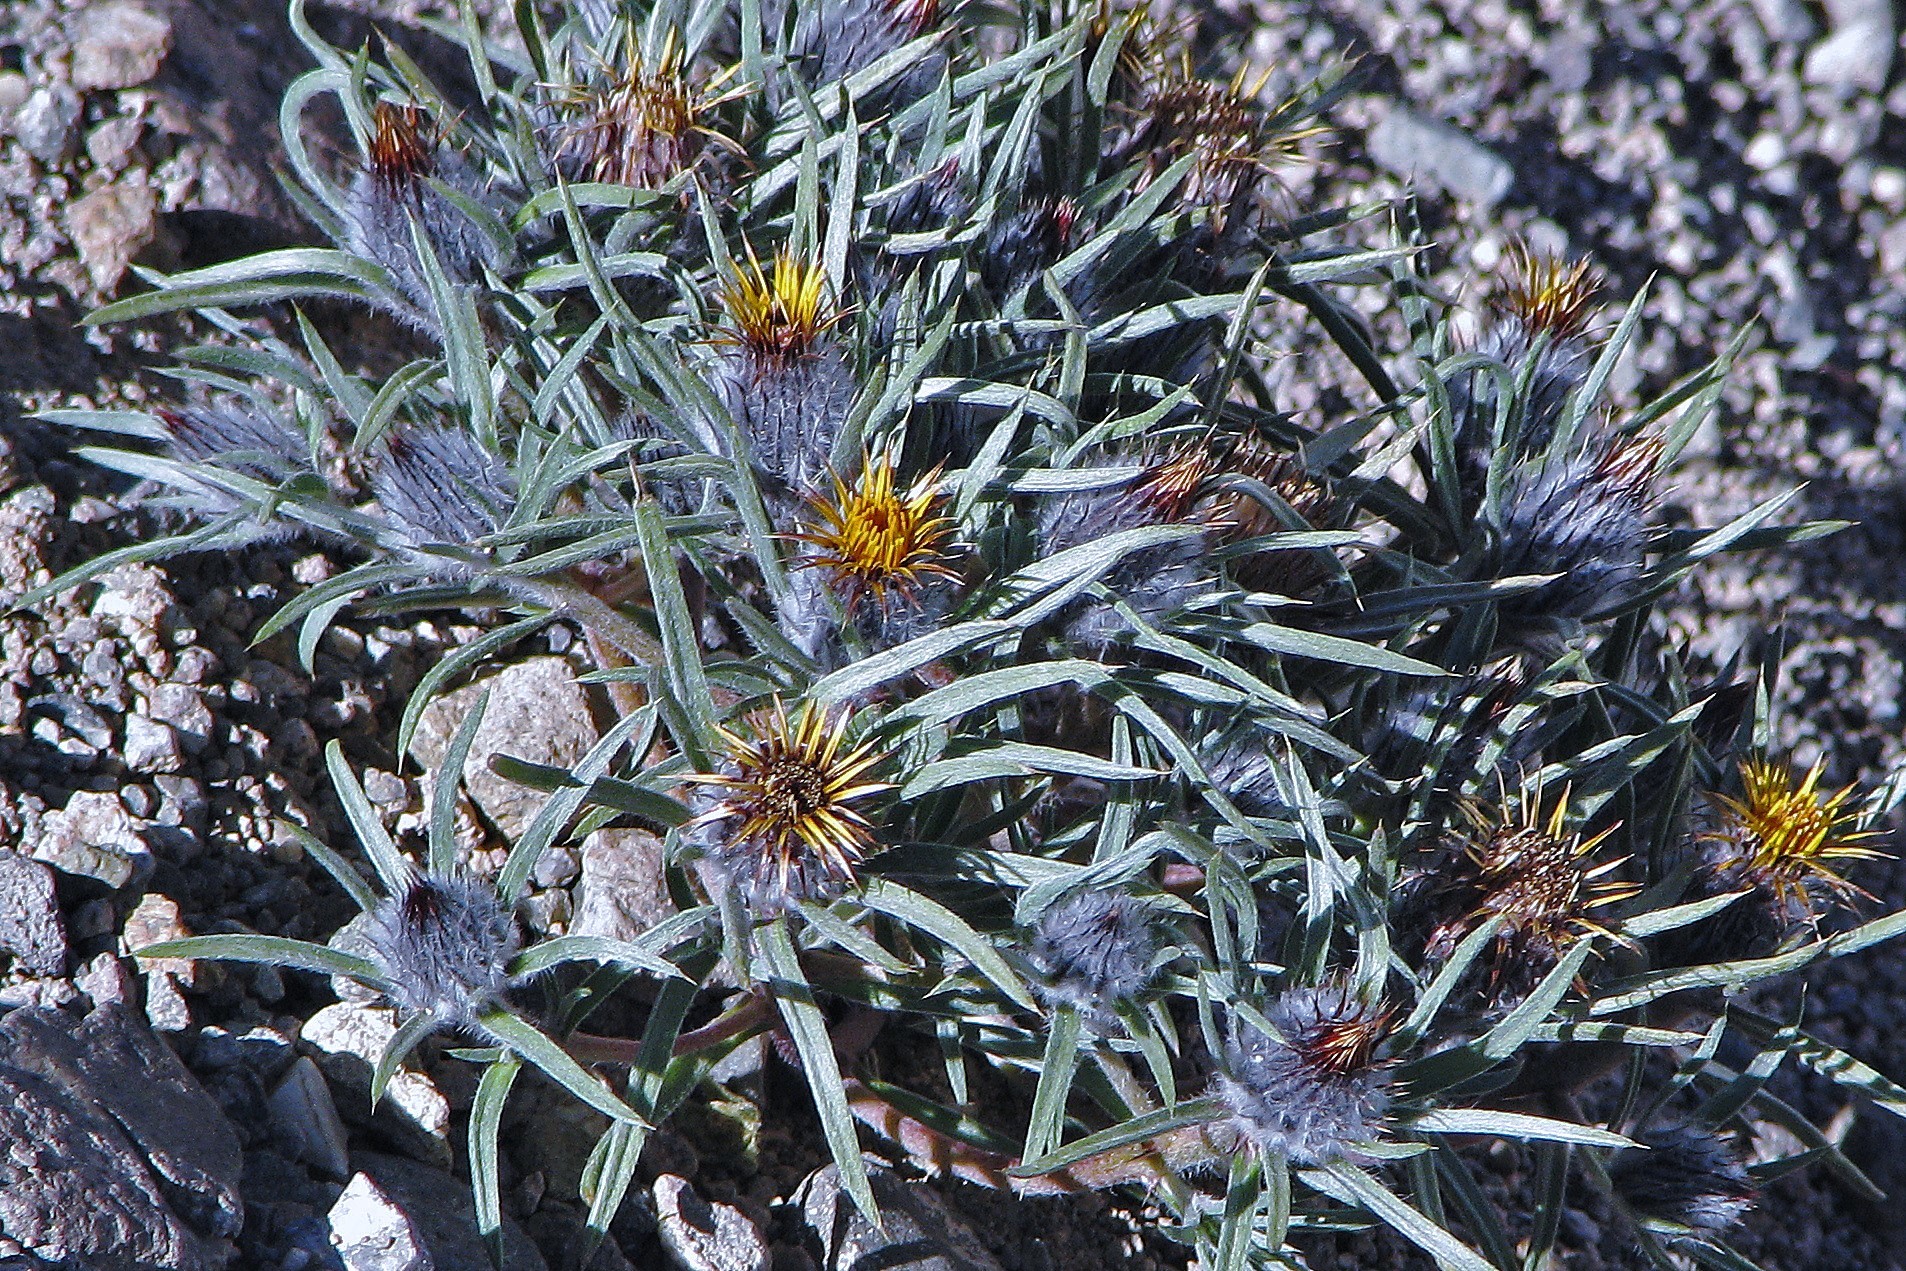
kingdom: Plantae
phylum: Tracheophyta
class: Magnoliopsida
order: Asterales
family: Asteraceae
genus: Doniophyton
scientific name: Doniophyton weddellii
